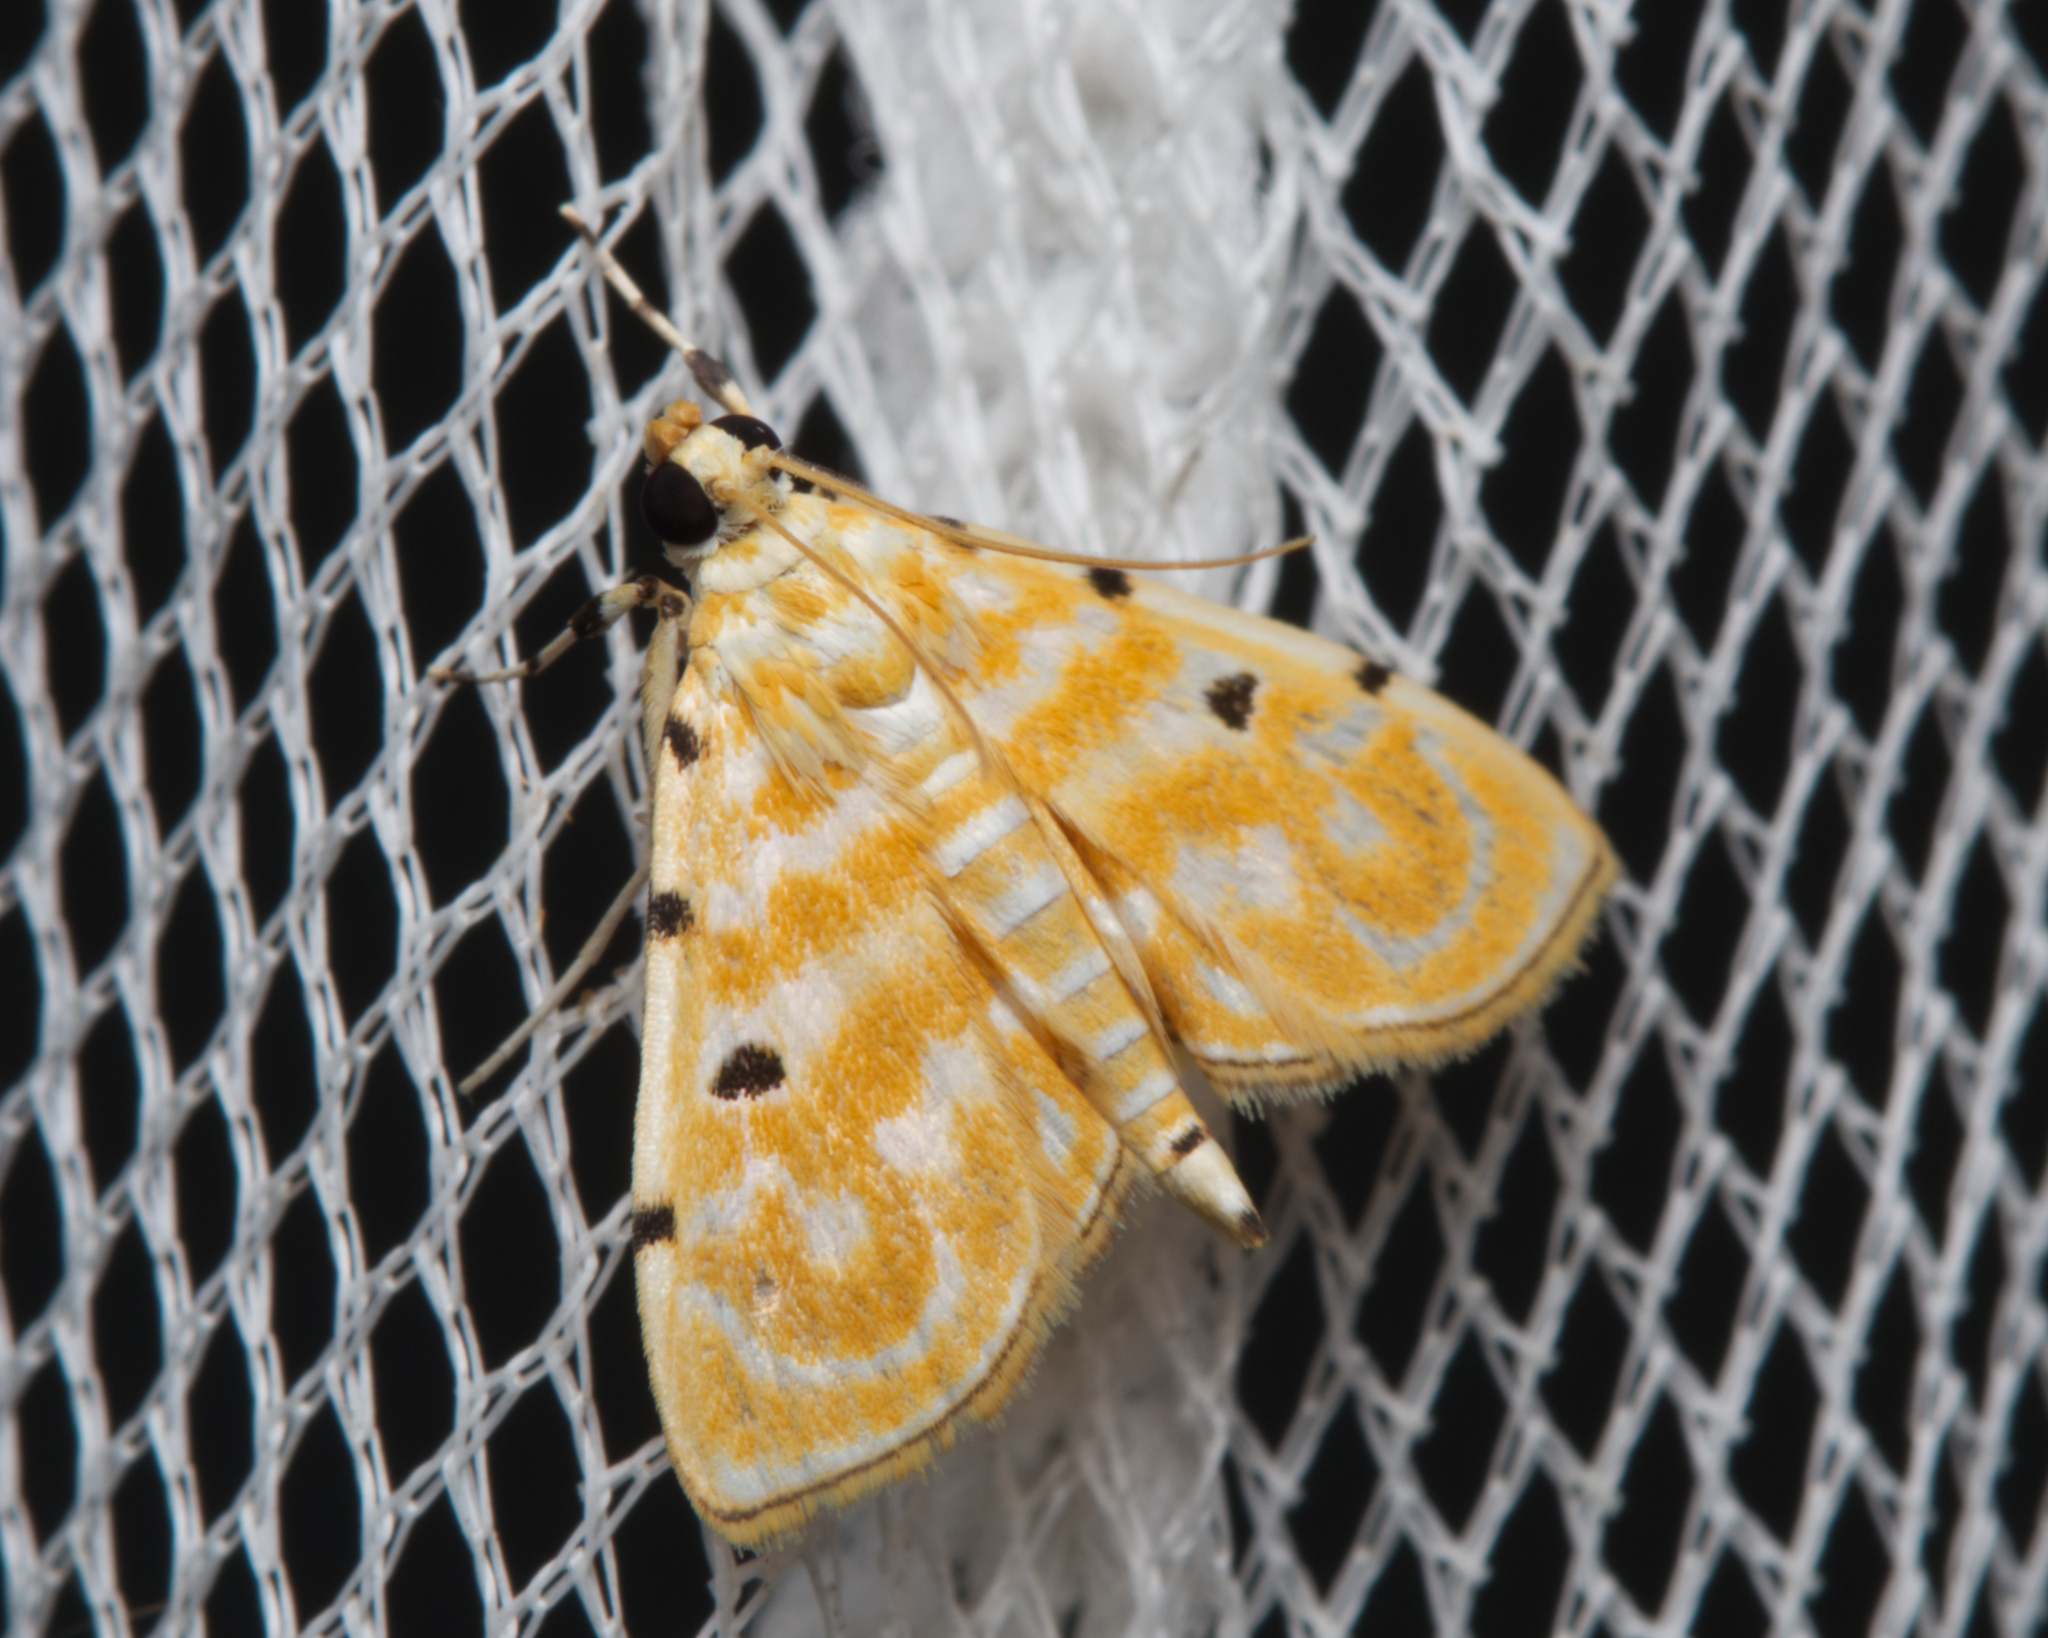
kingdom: Animalia
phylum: Arthropoda
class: Insecta
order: Lepidoptera
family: Crambidae
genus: Notarcha
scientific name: Notarcha aurolinealis
